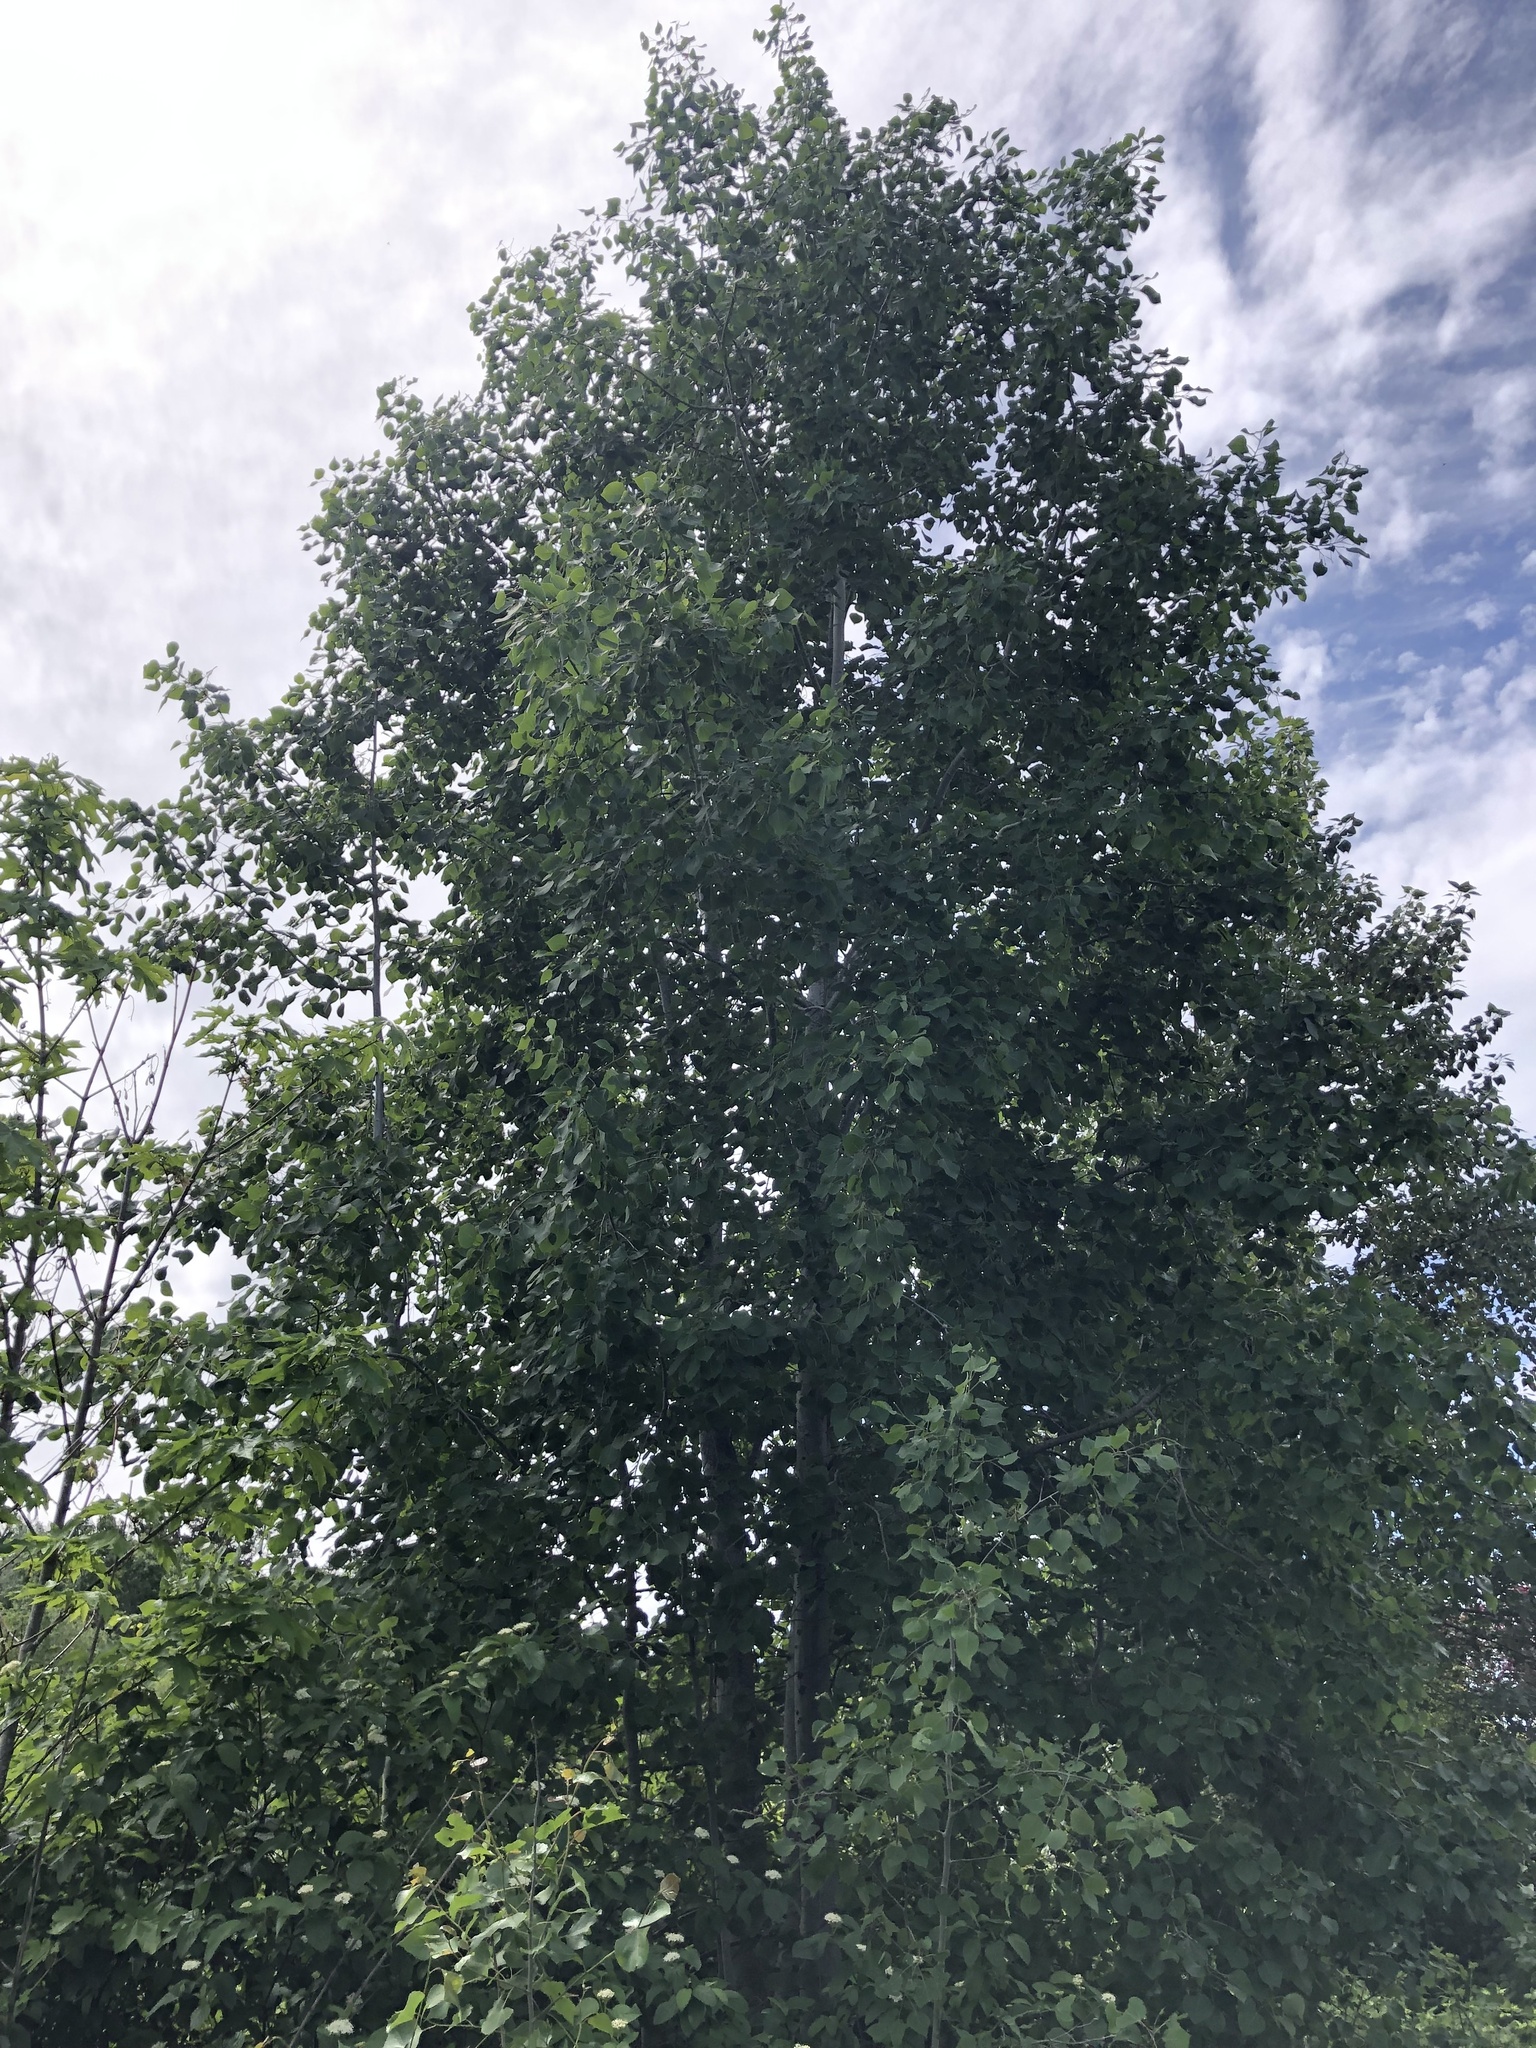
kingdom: Plantae
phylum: Tracheophyta
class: Magnoliopsida
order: Malpighiales
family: Salicaceae
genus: Populus
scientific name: Populus trichocarpa
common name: Black cottonwood
